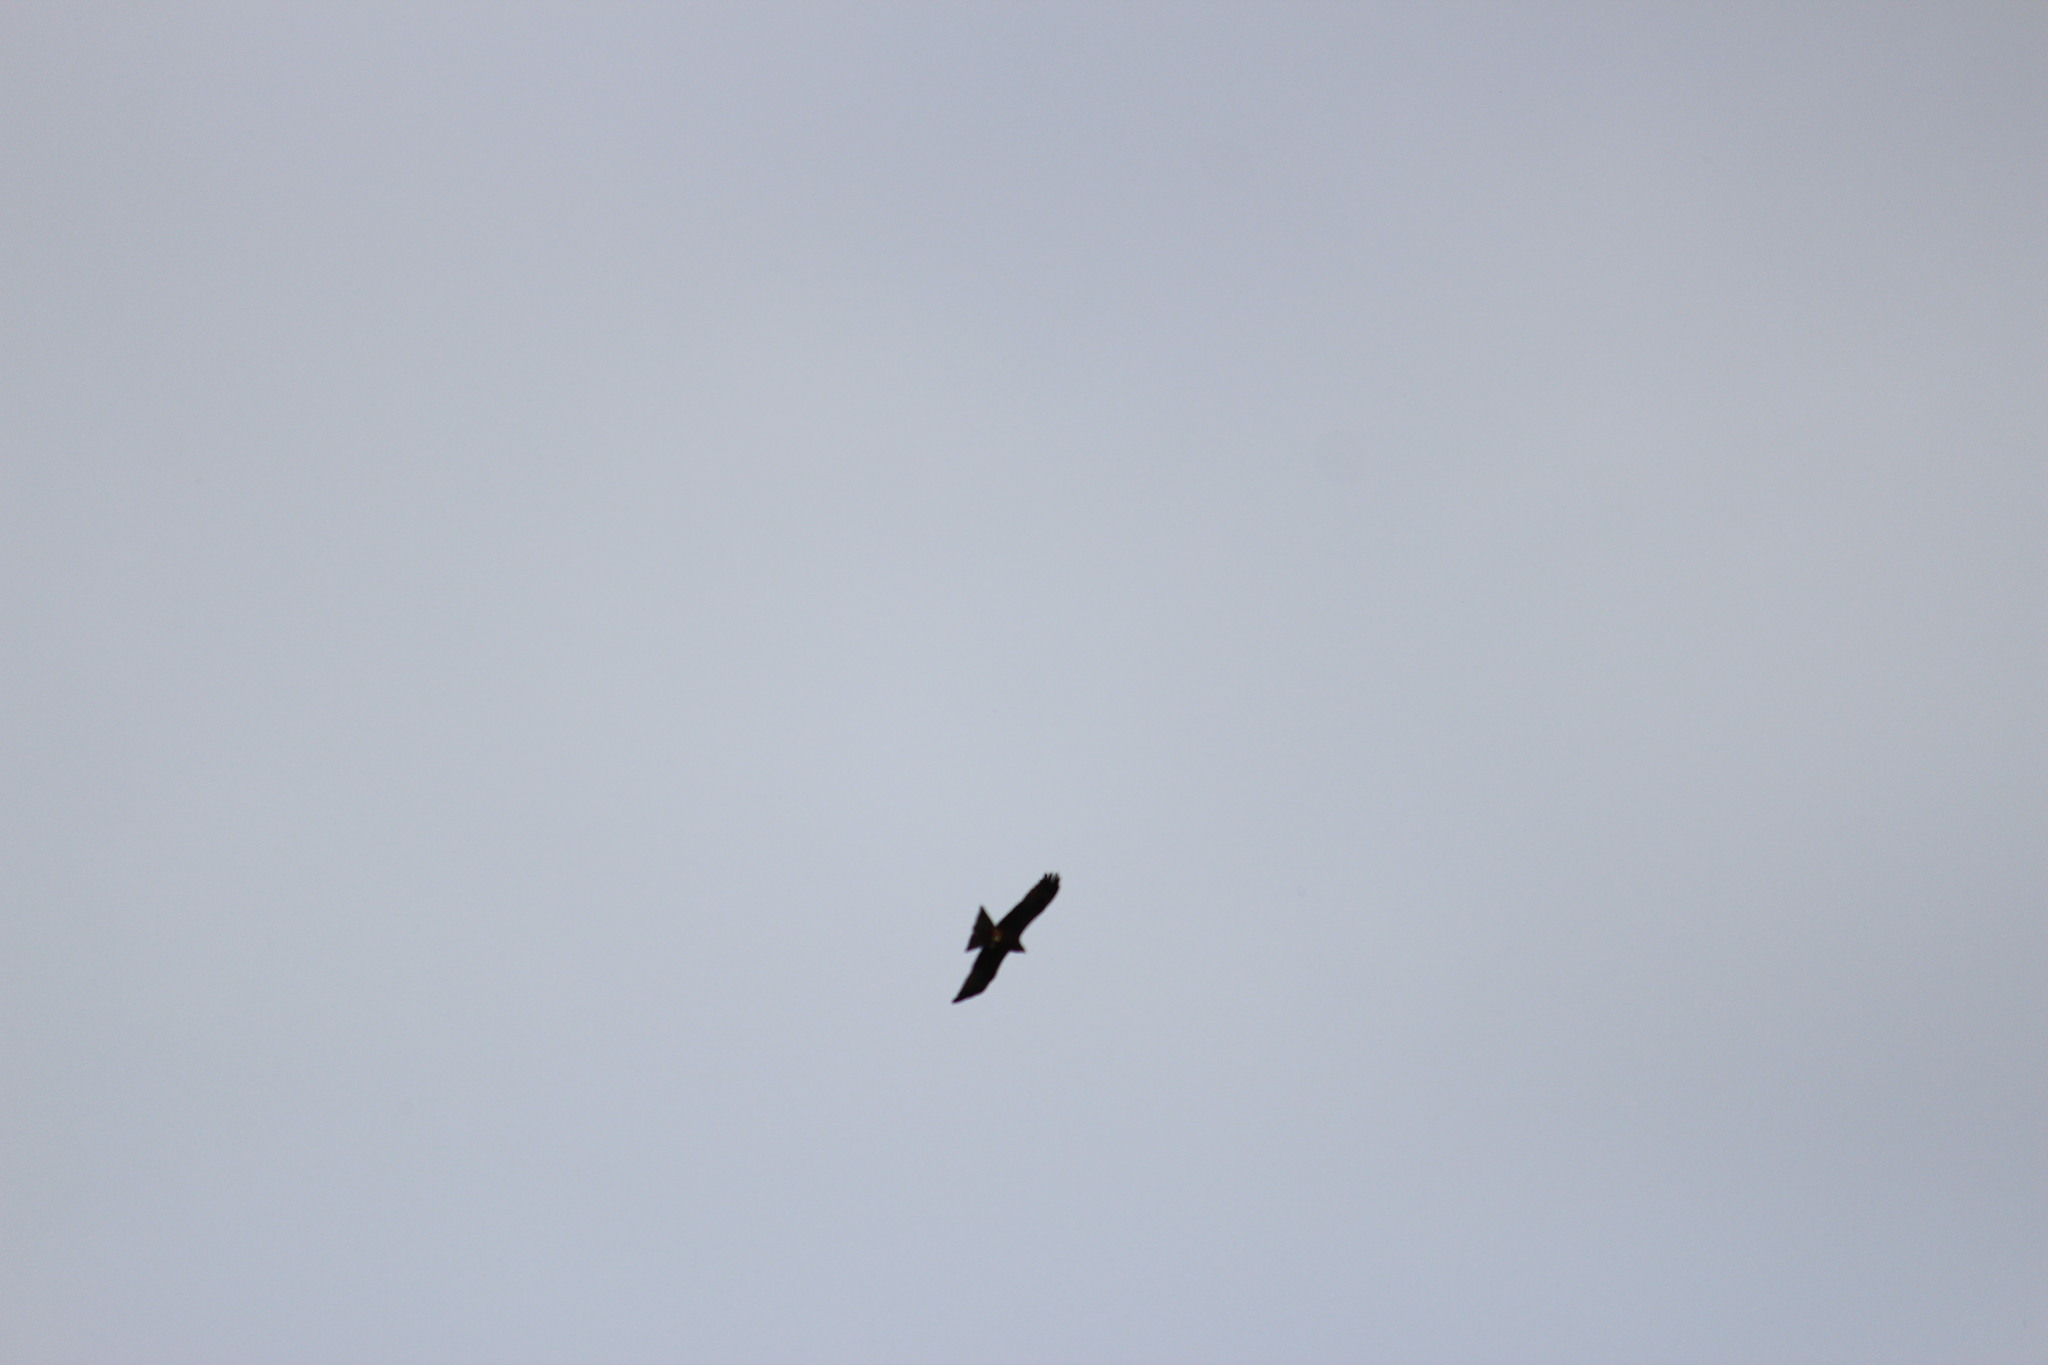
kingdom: Animalia
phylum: Chordata
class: Aves
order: Accipitriformes
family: Accipitridae
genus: Milvus
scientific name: Milvus migrans
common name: Black kite
